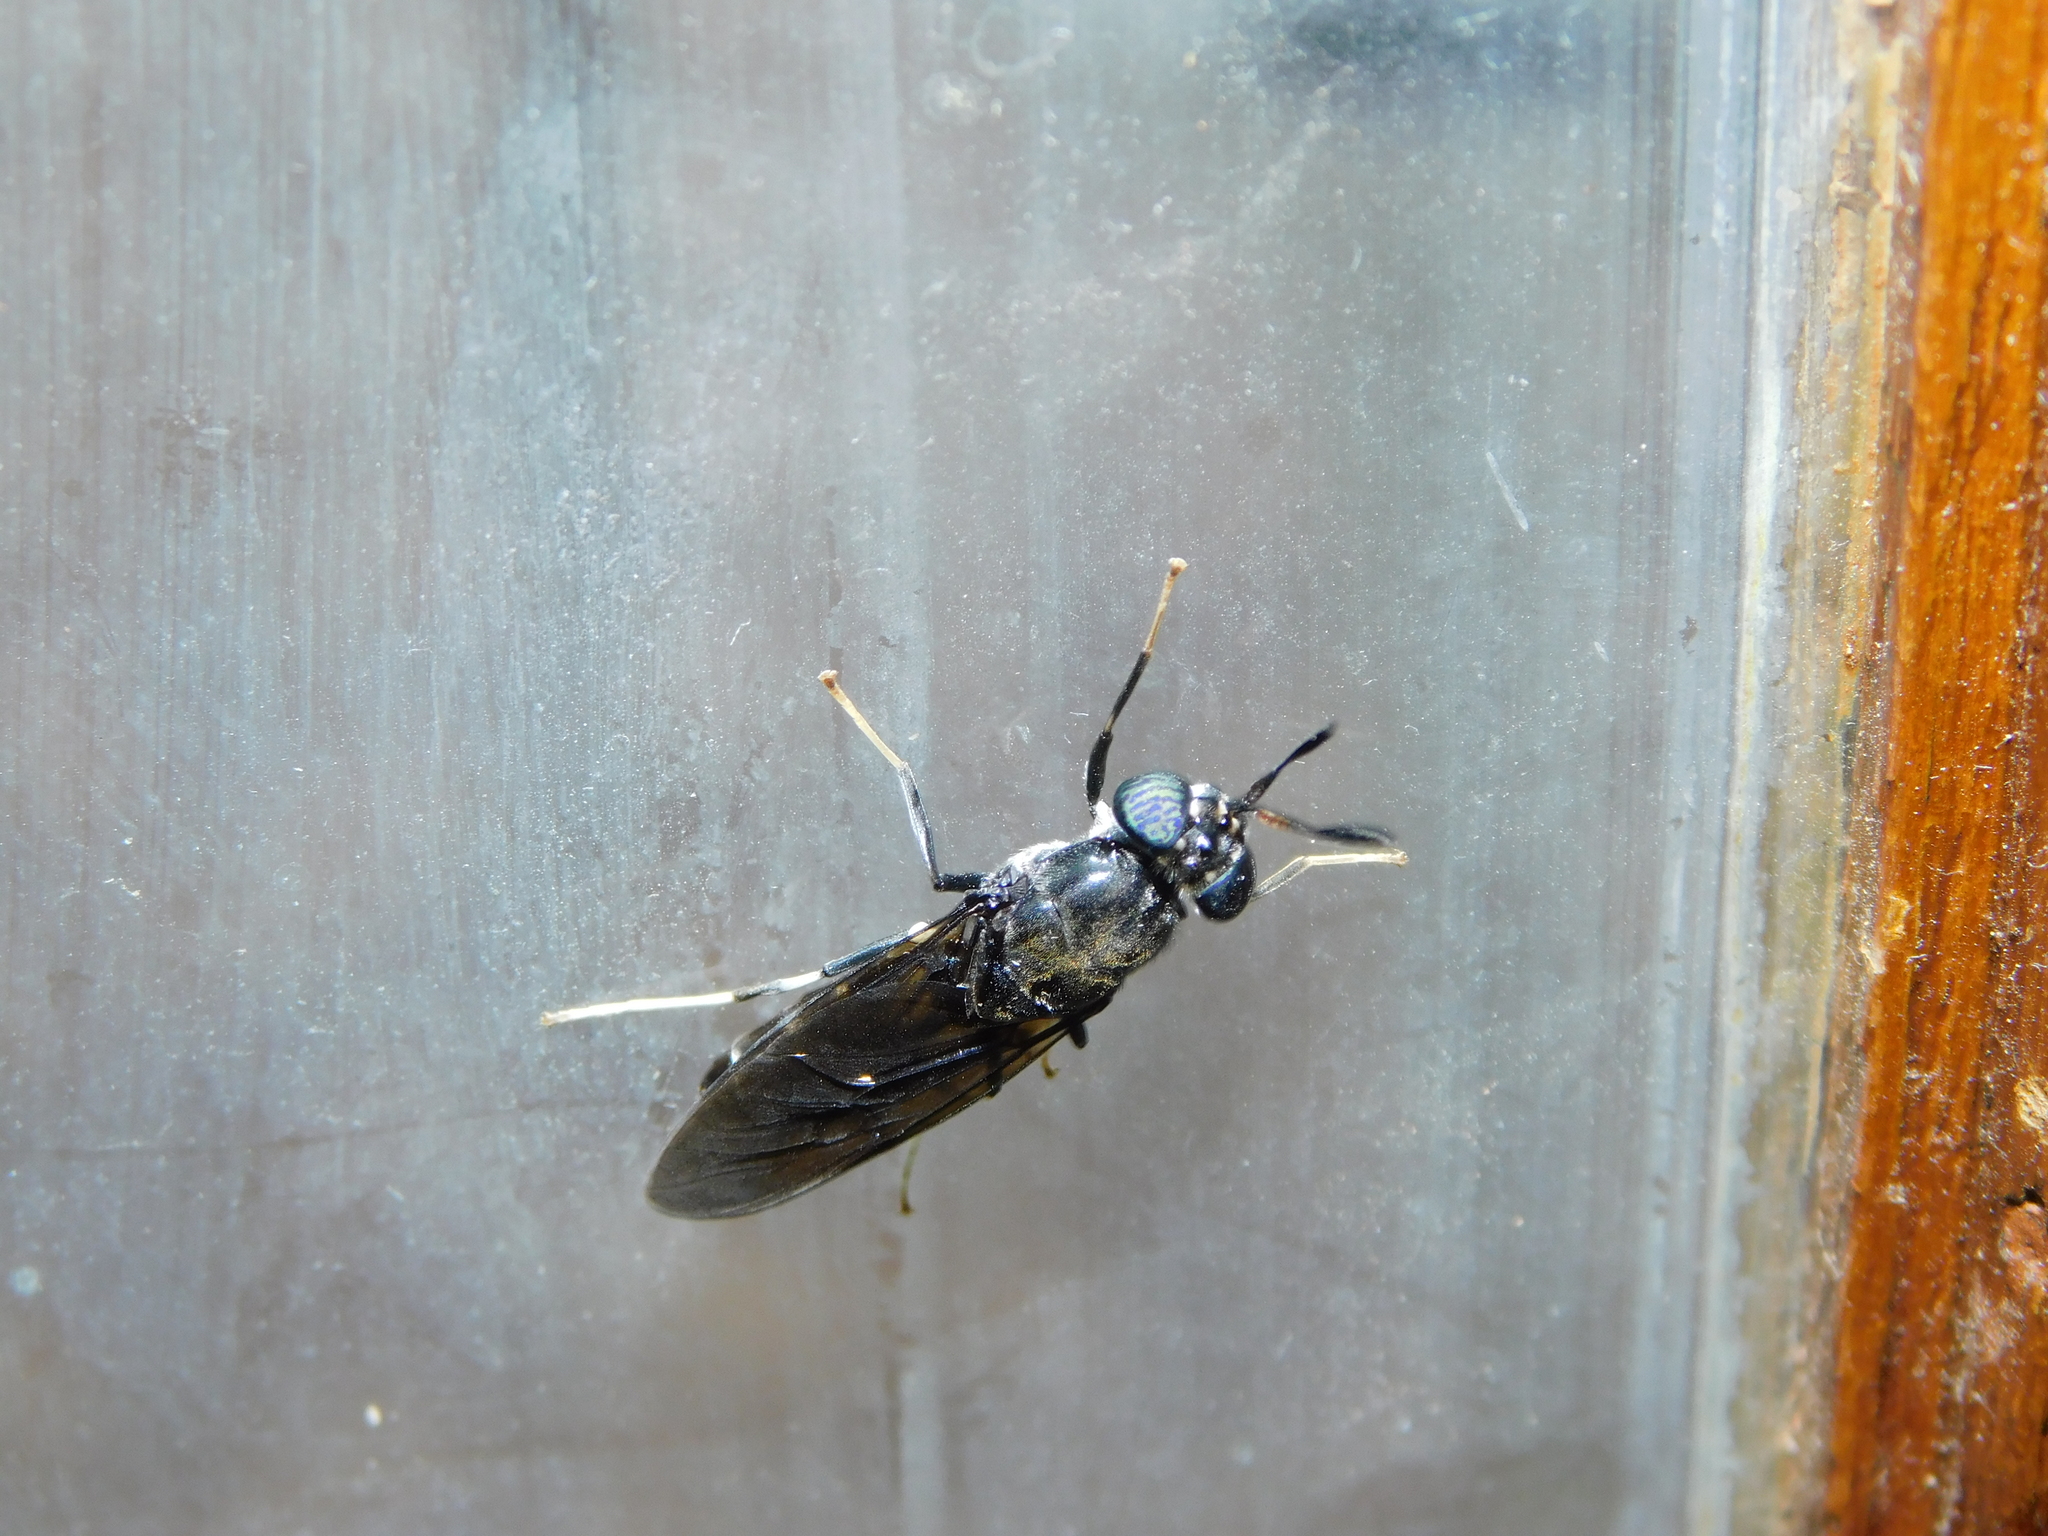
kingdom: Animalia
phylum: Arthropoda
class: Insecta
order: Diptera
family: Stratiomyidae
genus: Hermetia
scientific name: Hermetia illucens
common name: Black soldier fly
